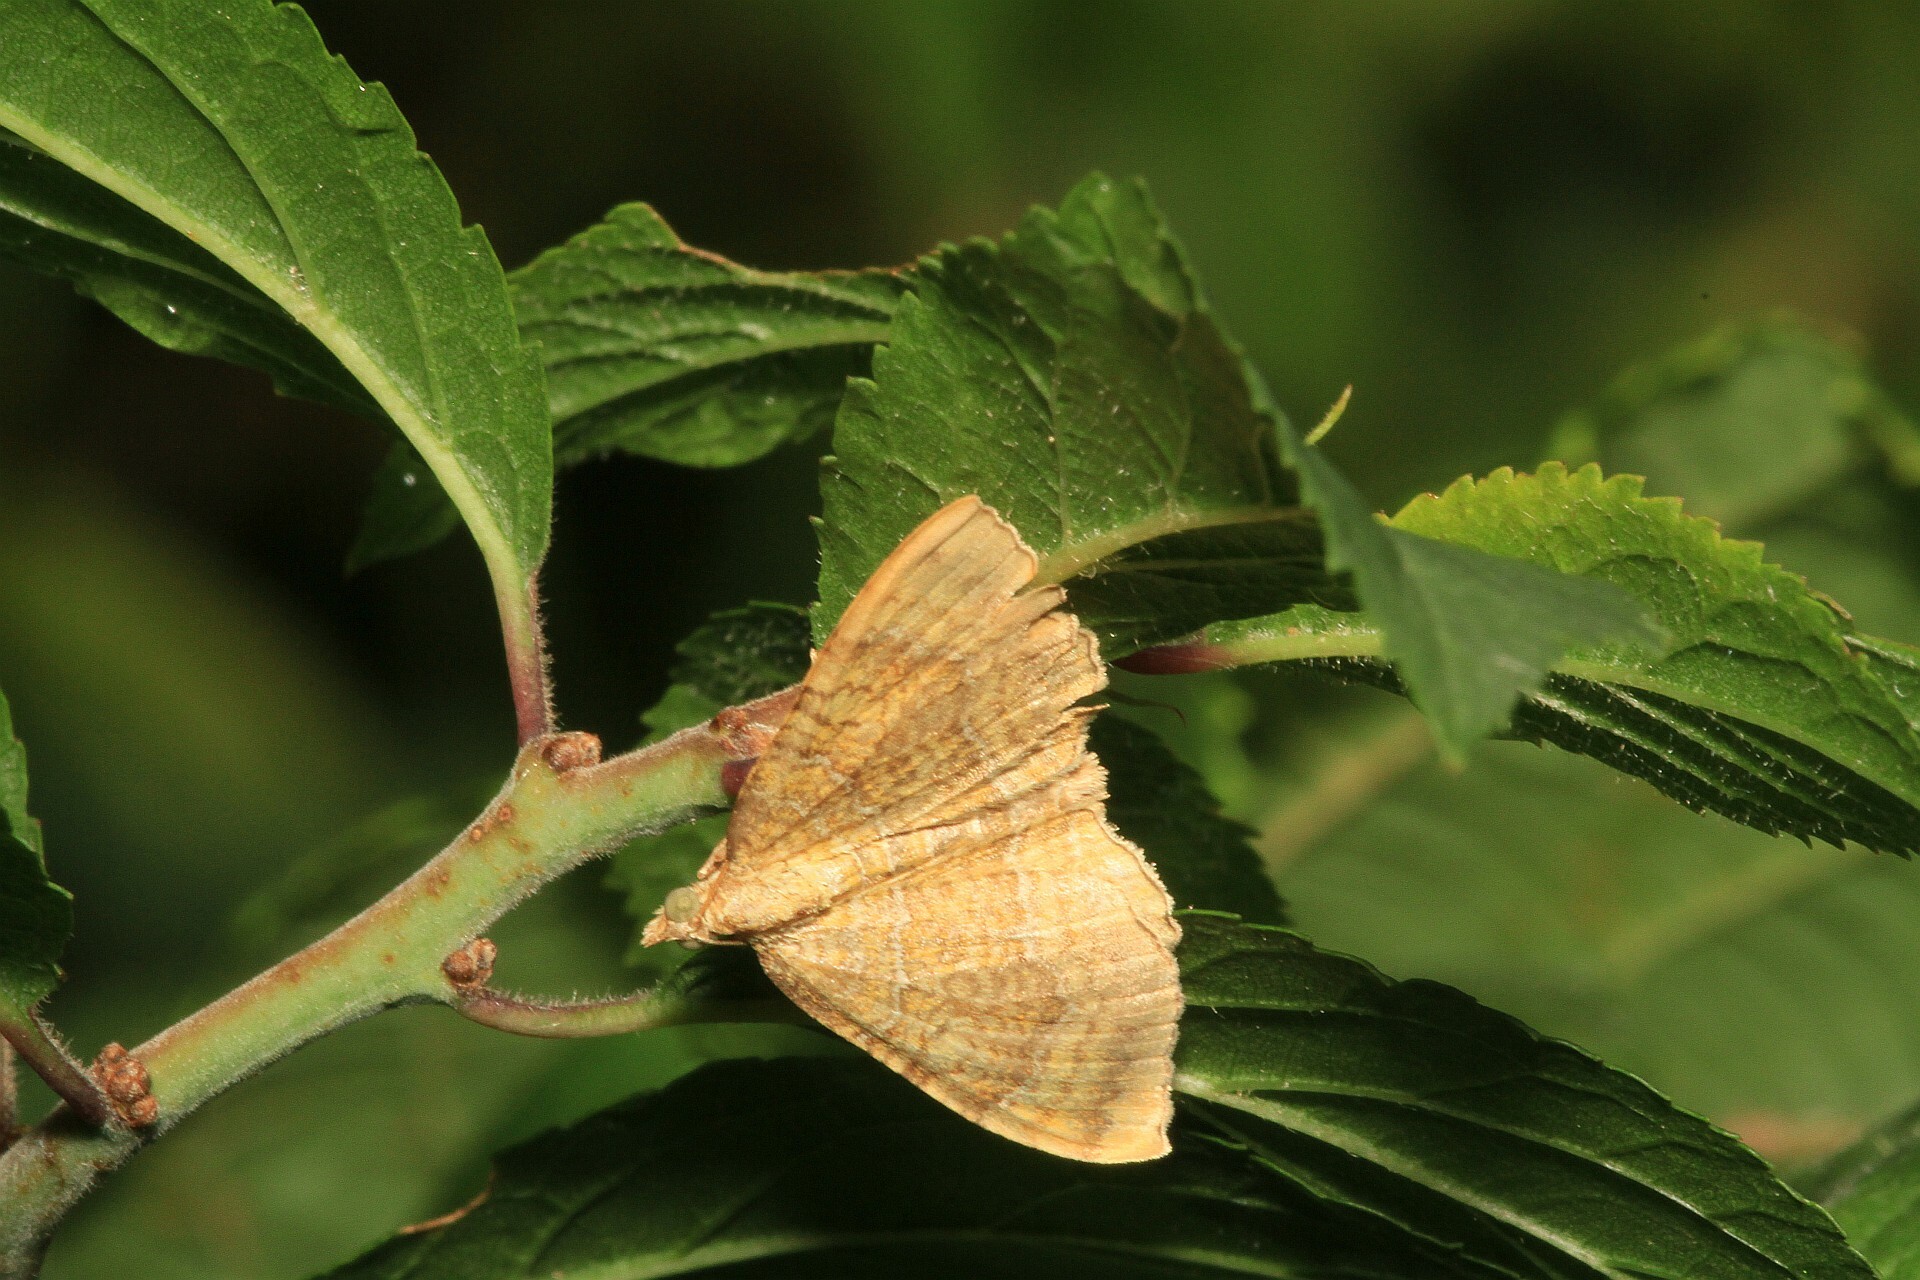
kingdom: Animalia
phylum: Arthropoda
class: Insecta
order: Lepidoptera
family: Geometridae
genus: Camptogramma
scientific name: Camptogramma bilineata
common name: Yellow shell
